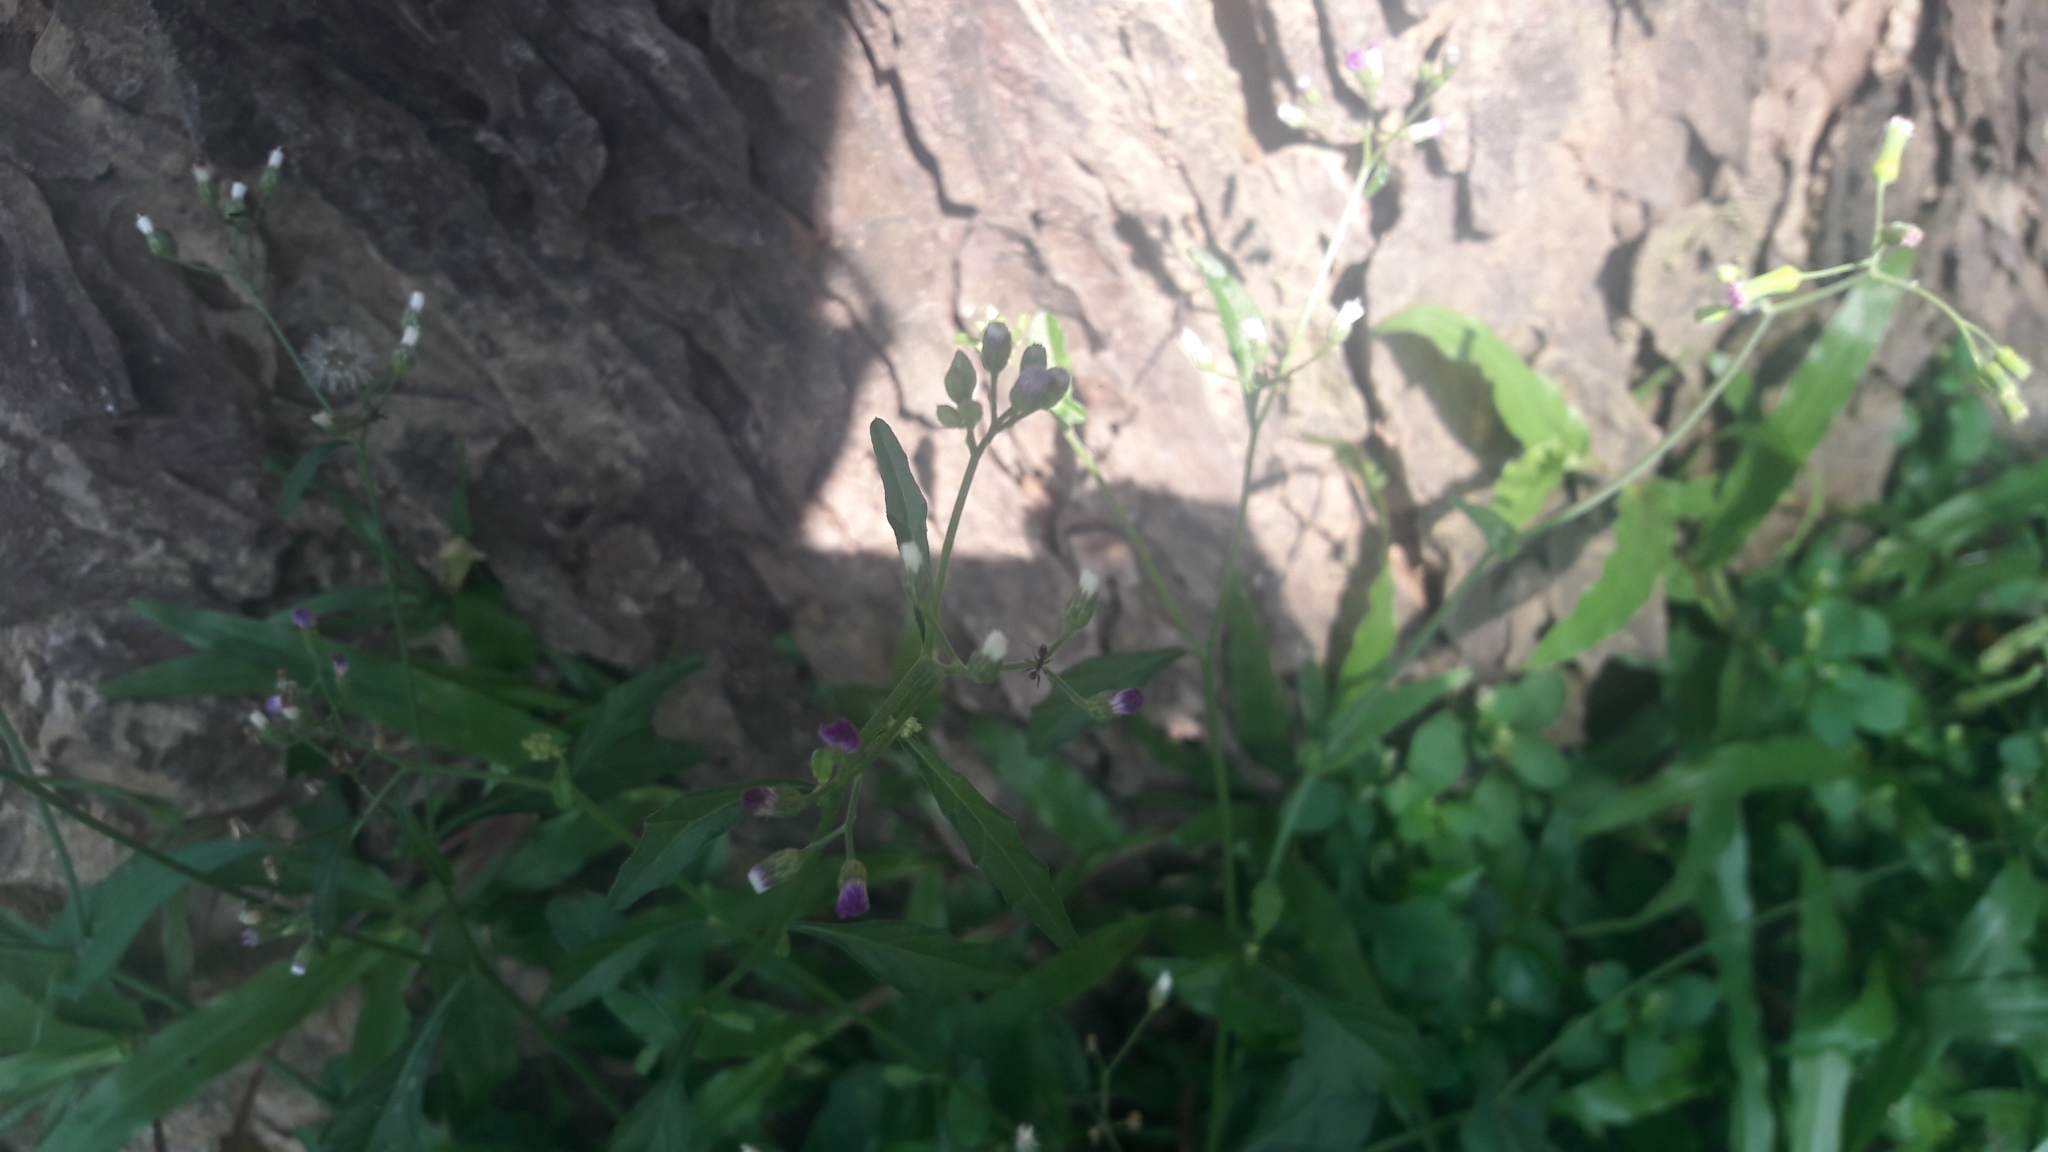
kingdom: Plantae
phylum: Tracheophyta
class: Magnoliopsida
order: Asterales
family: Asteraceae
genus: Cyanthillium
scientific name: Cyanthillium cinereum
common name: Little ironweed
